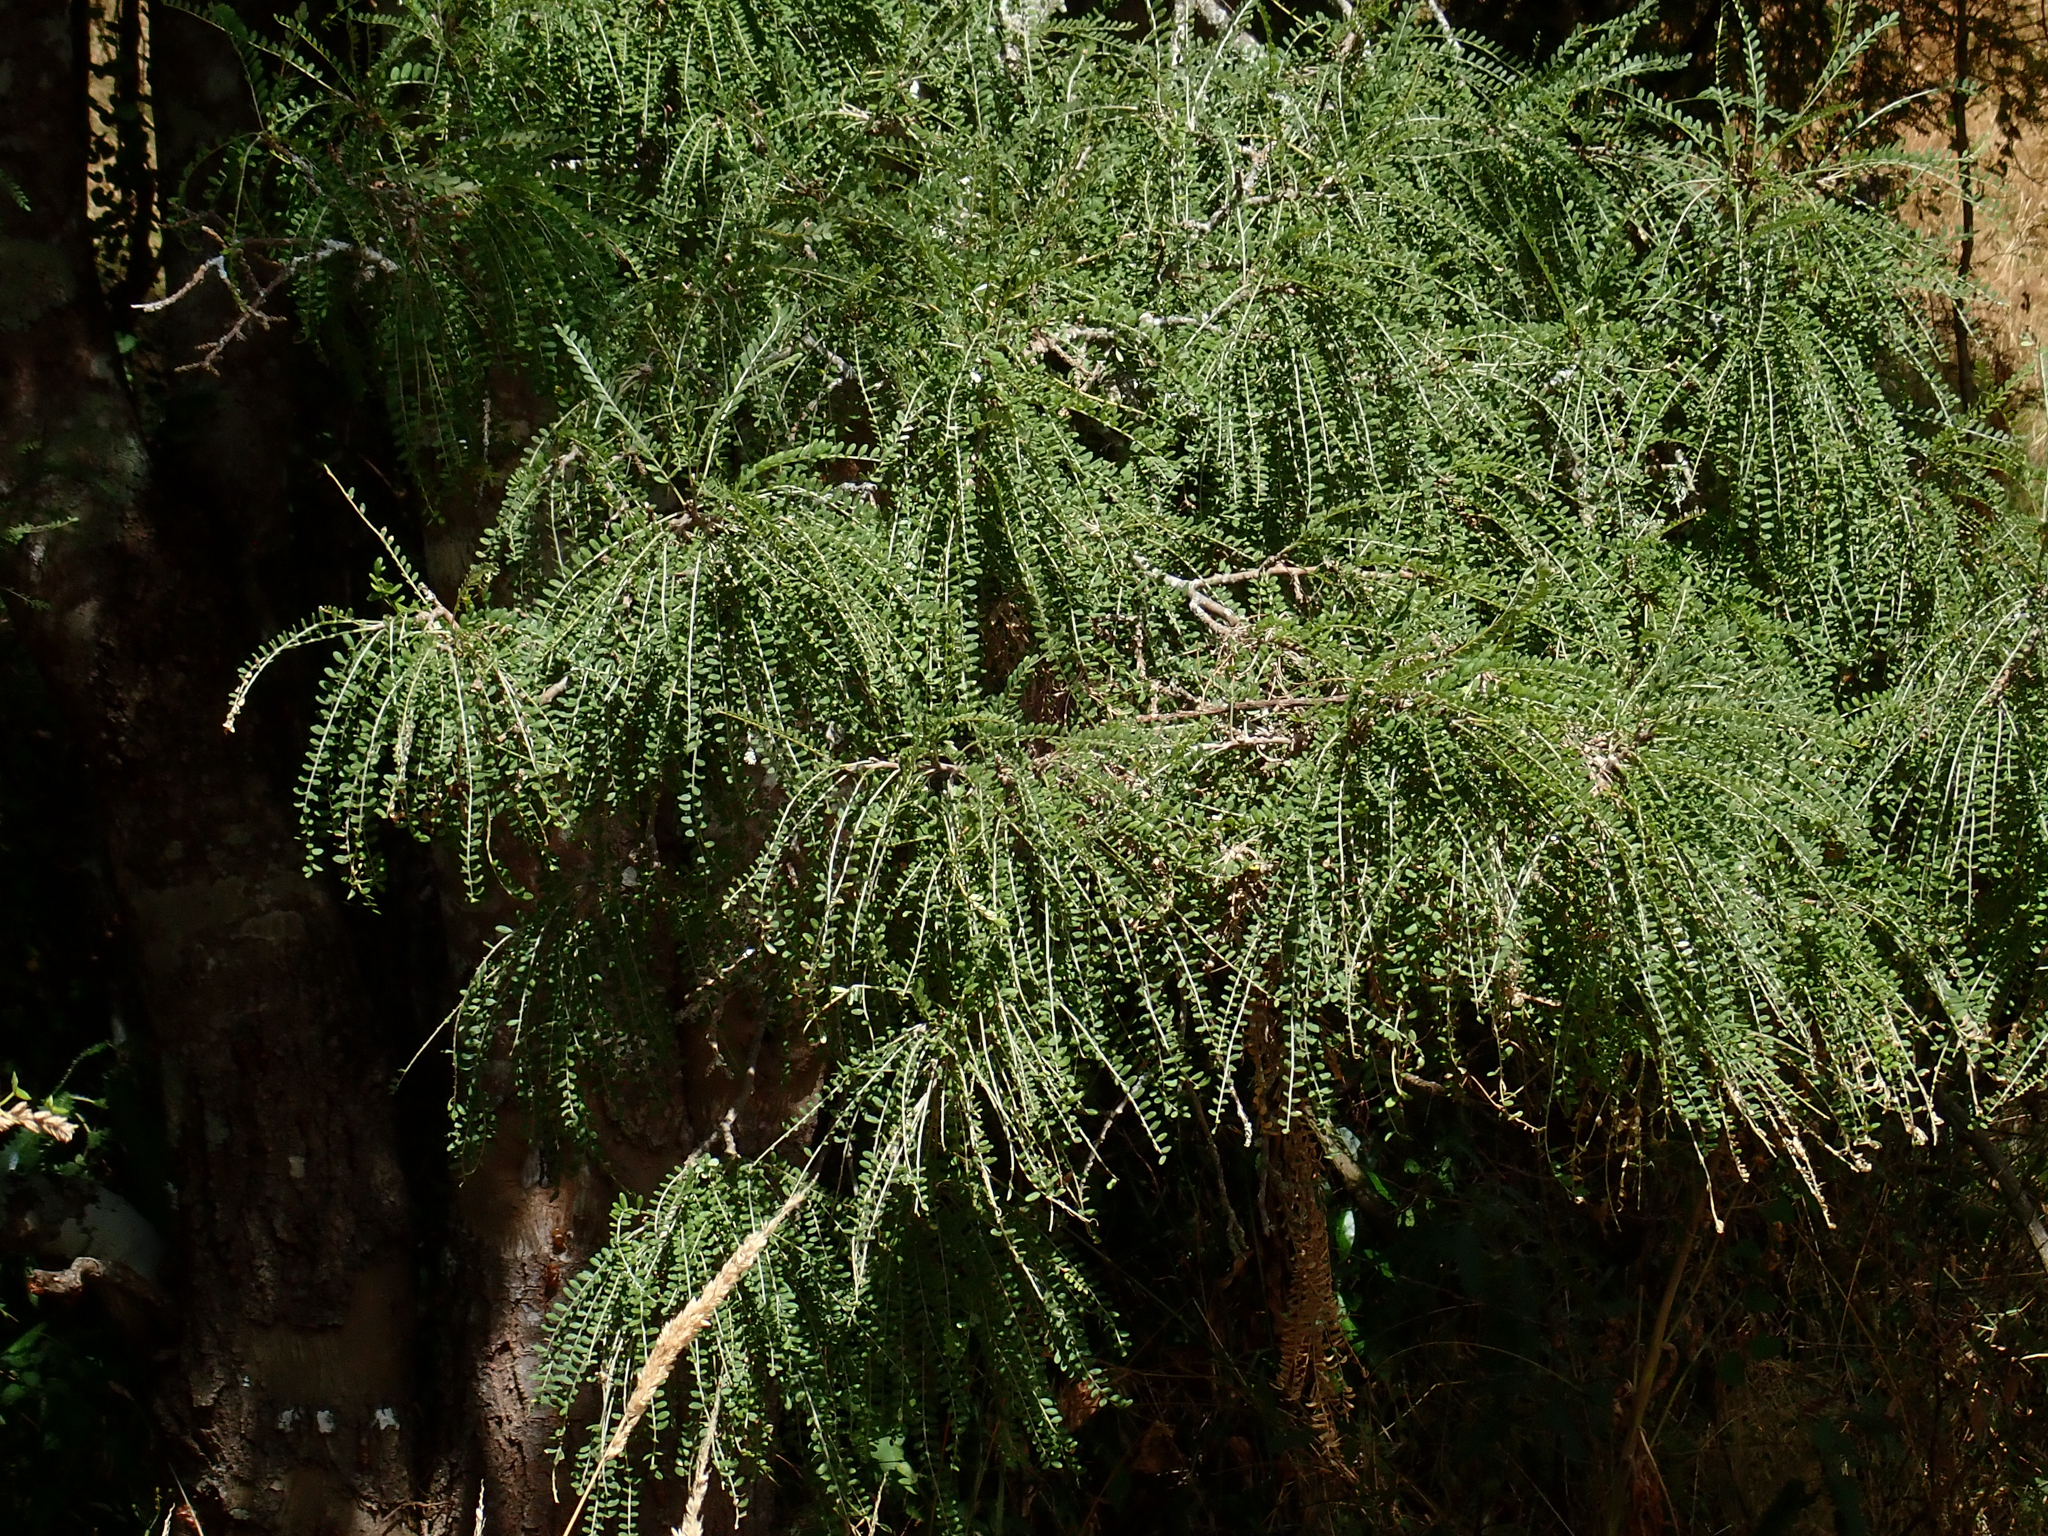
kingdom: Plantae
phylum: Tracheophyta
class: Magnoliopsida
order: Fabales
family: Fabaceae
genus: Sophora
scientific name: Sophora microphylla
